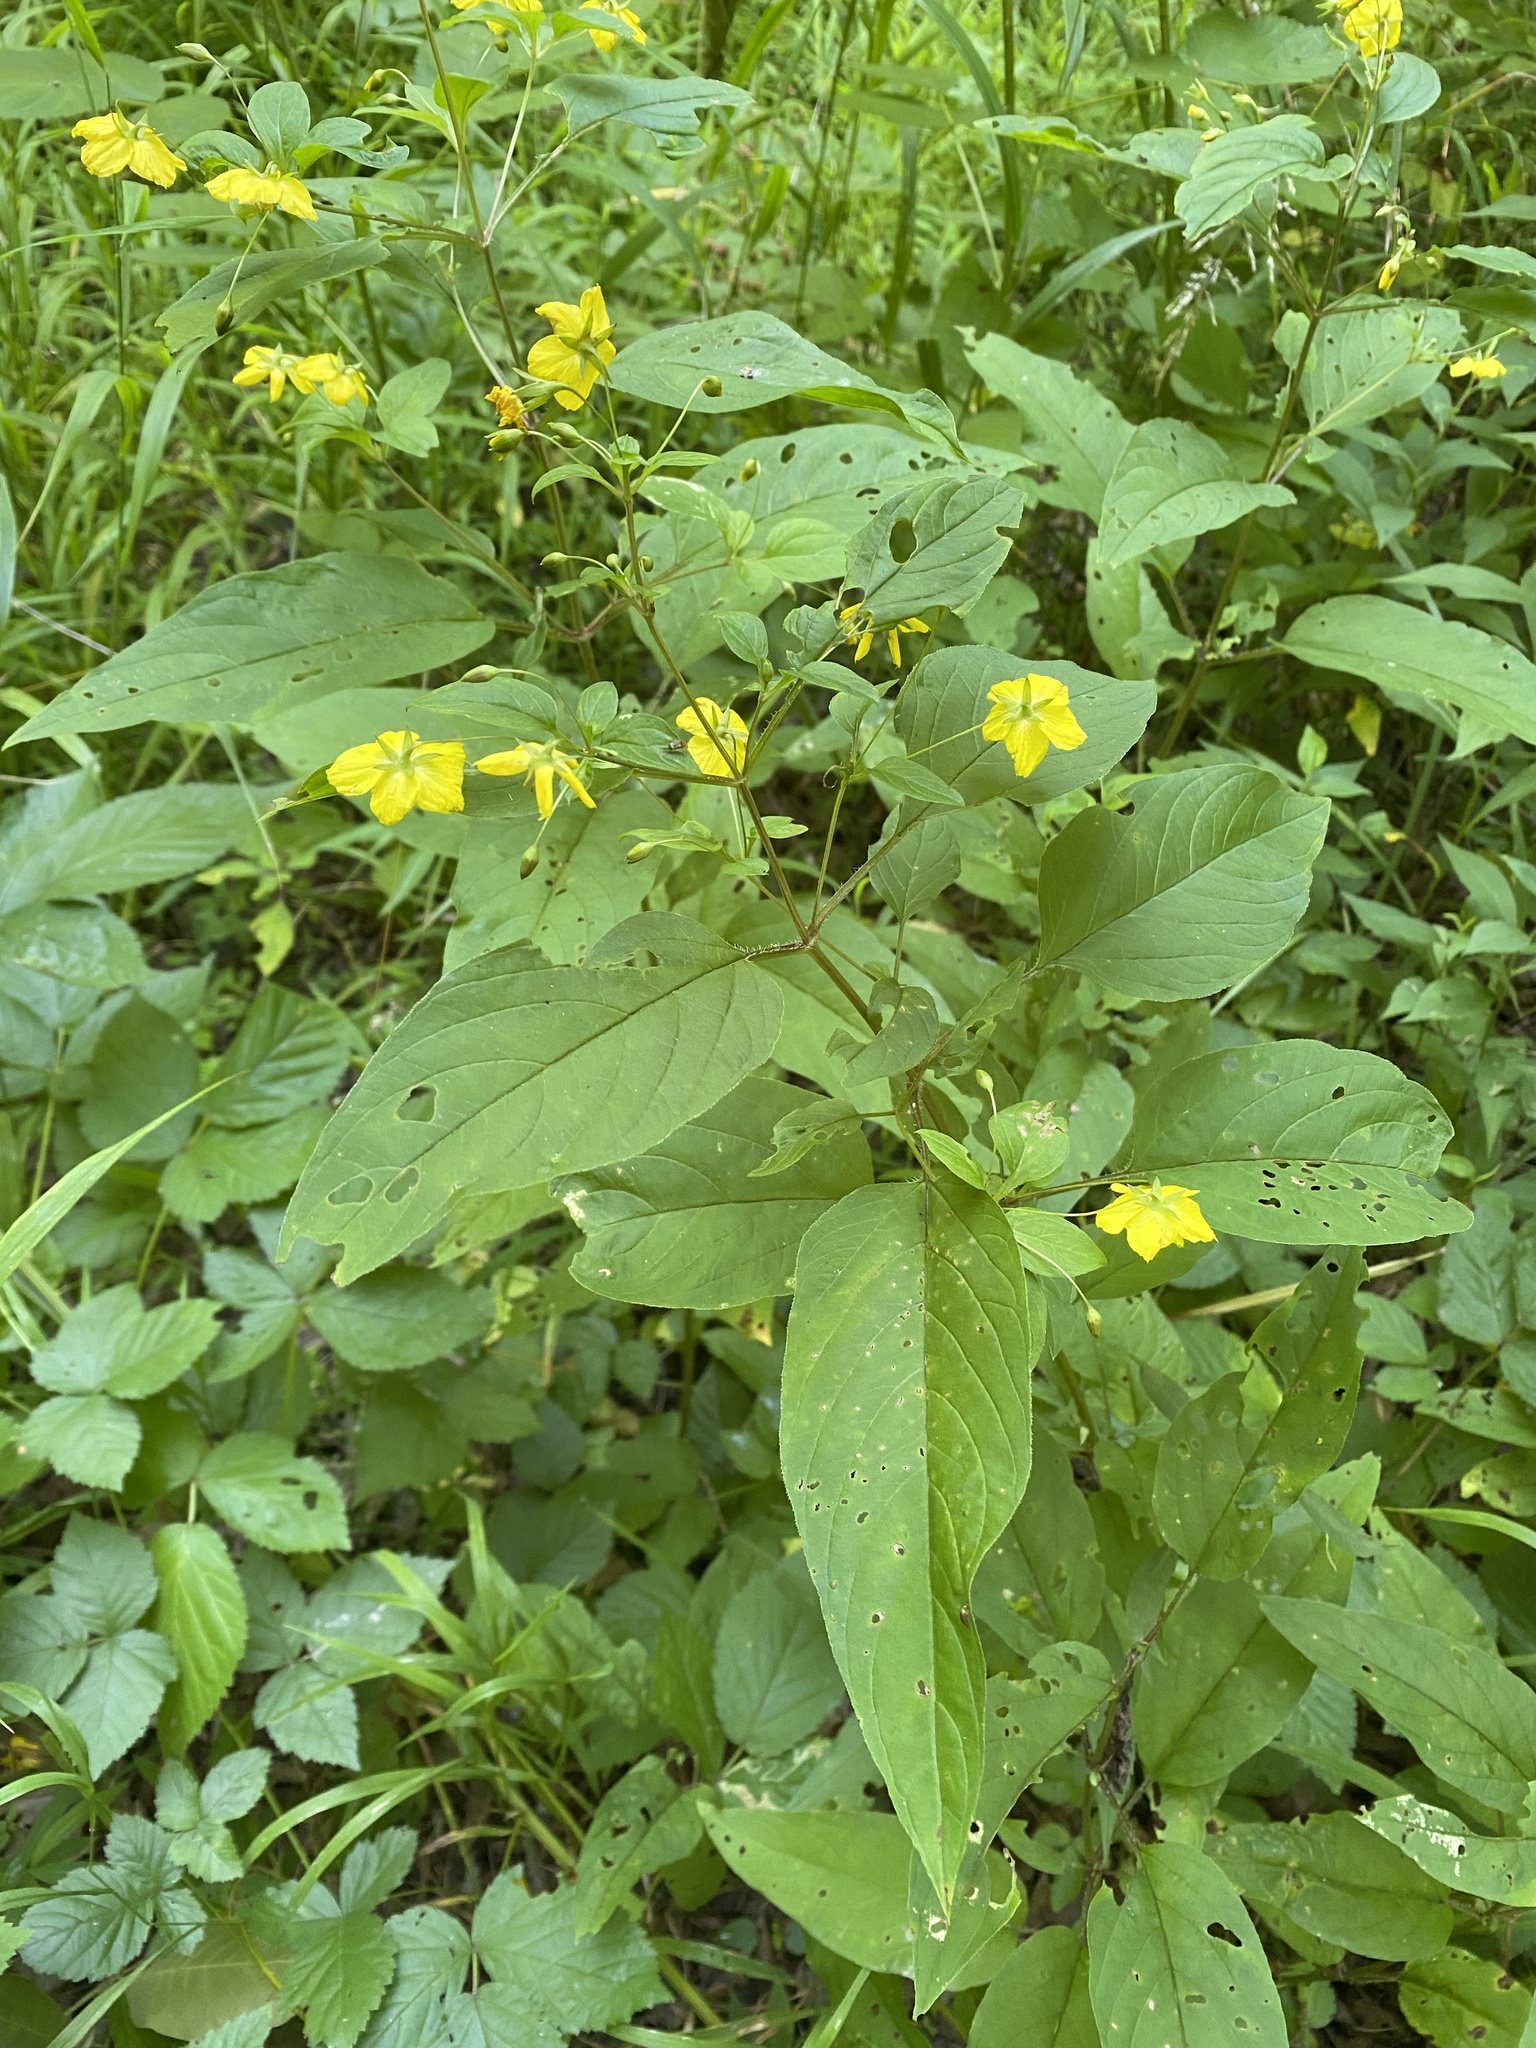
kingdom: Plantae
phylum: Tracheophyta
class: Magnoliopsida
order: Ericales
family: Primulaceae
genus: Lysimachia
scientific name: Lysimachia ciliata
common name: Fringed loosestrife
